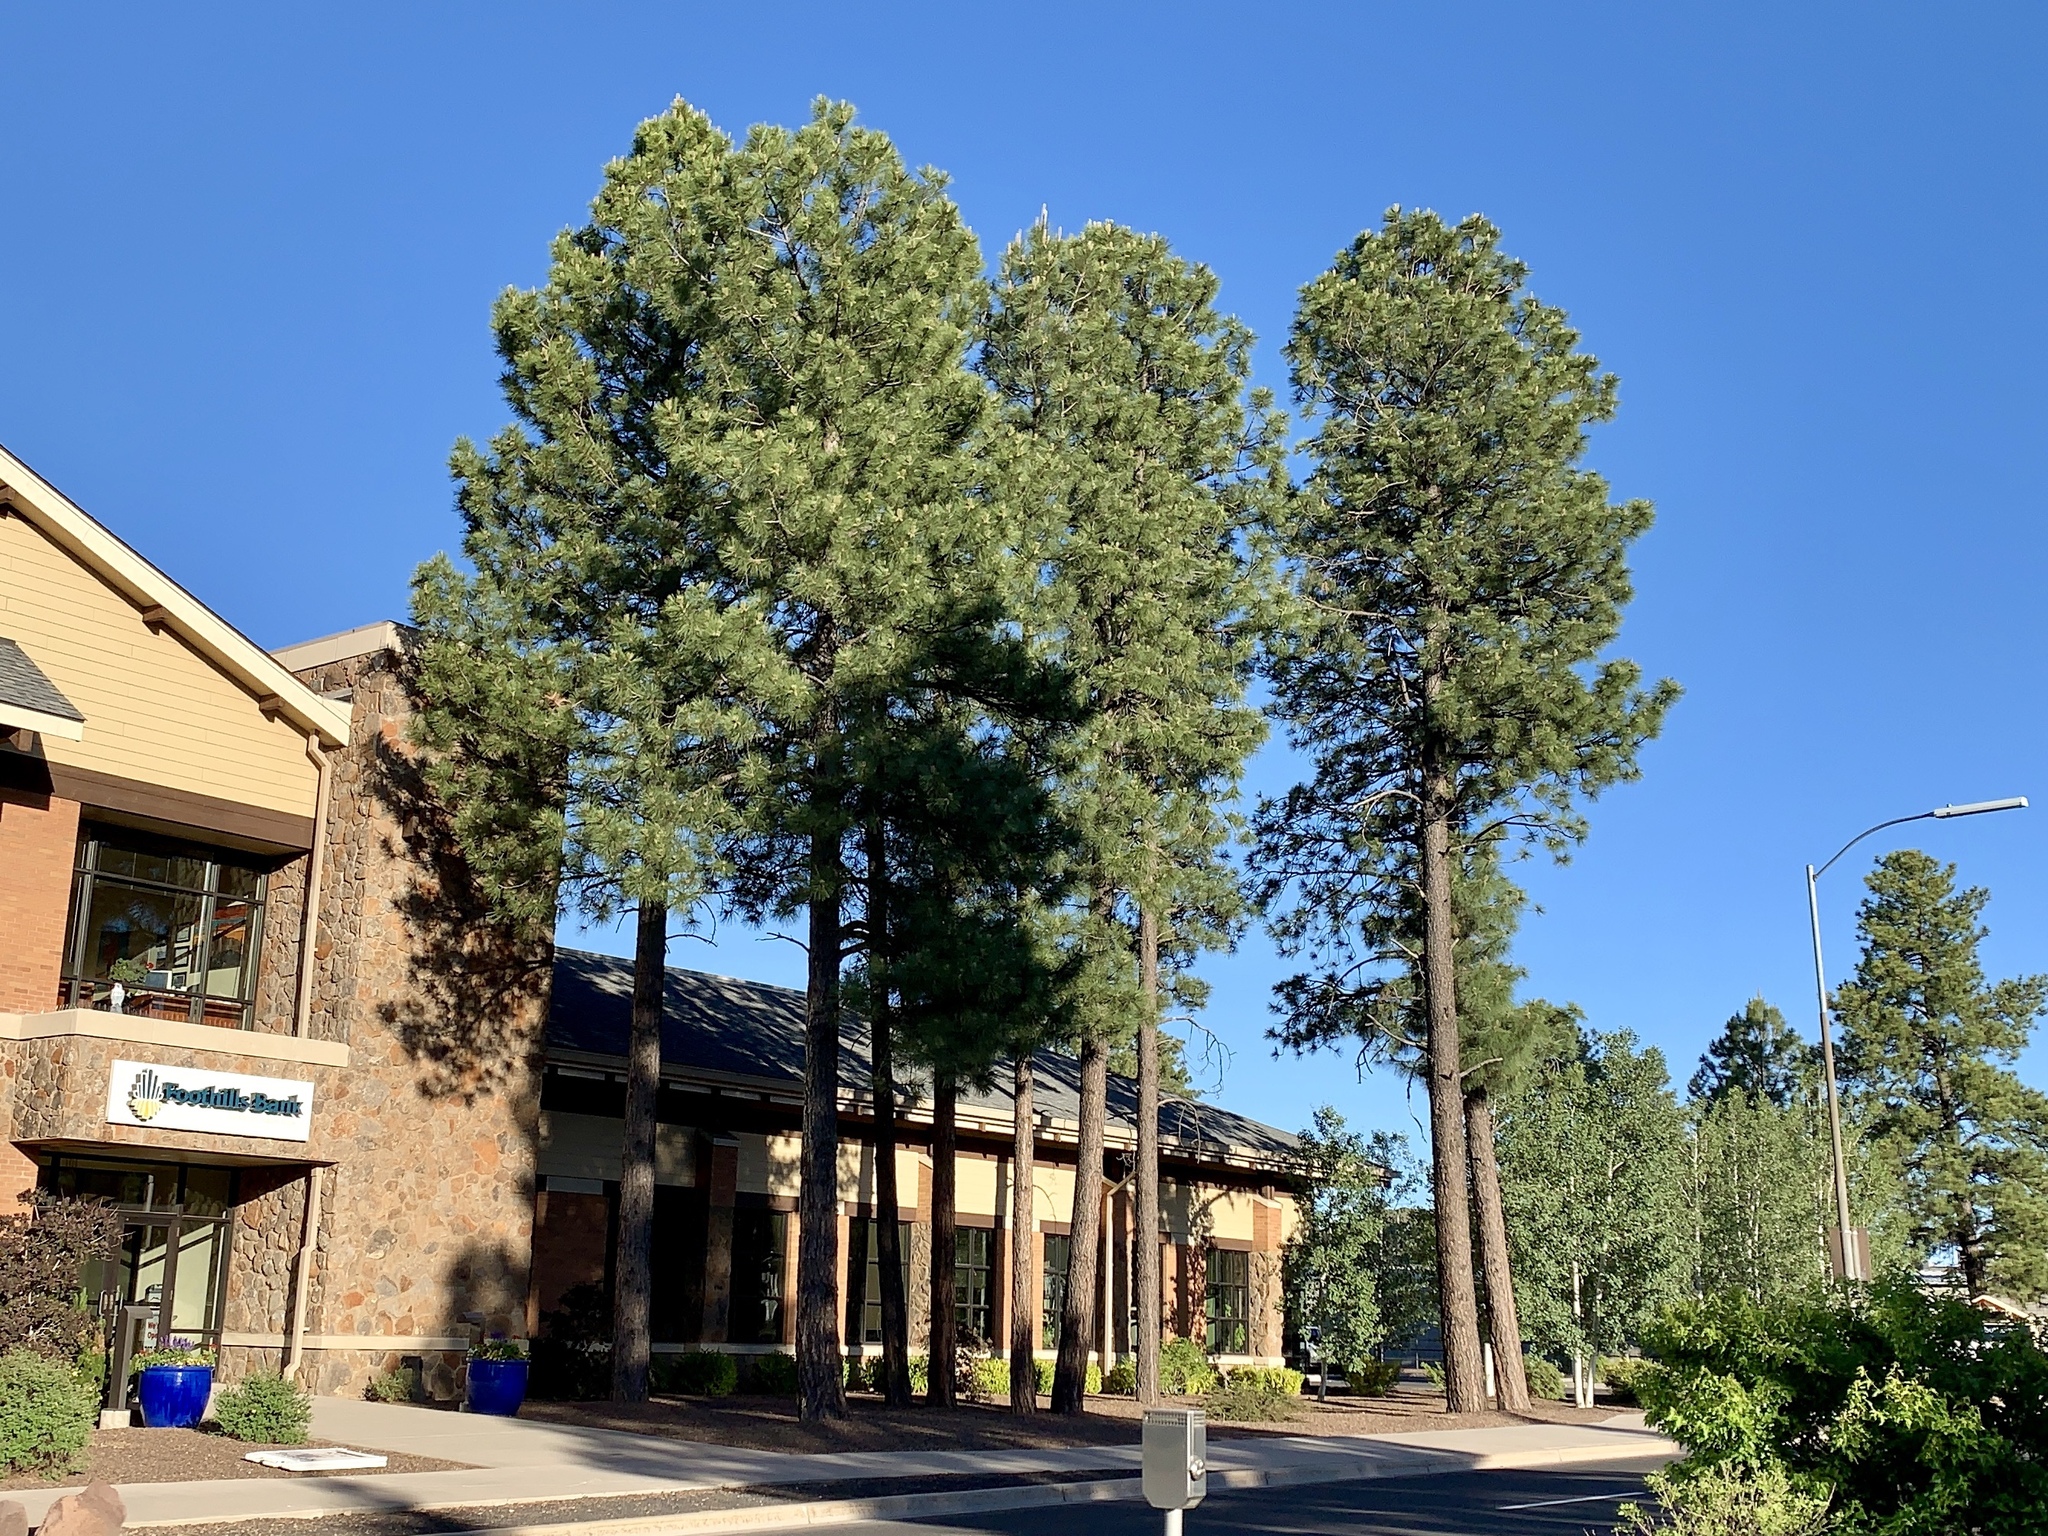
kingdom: Plantae
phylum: Tracheophyta
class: Pinopsida
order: Pinales
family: Pinaceae
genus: Pinus
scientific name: Pinus ponderosa
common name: Western yellow-pine
